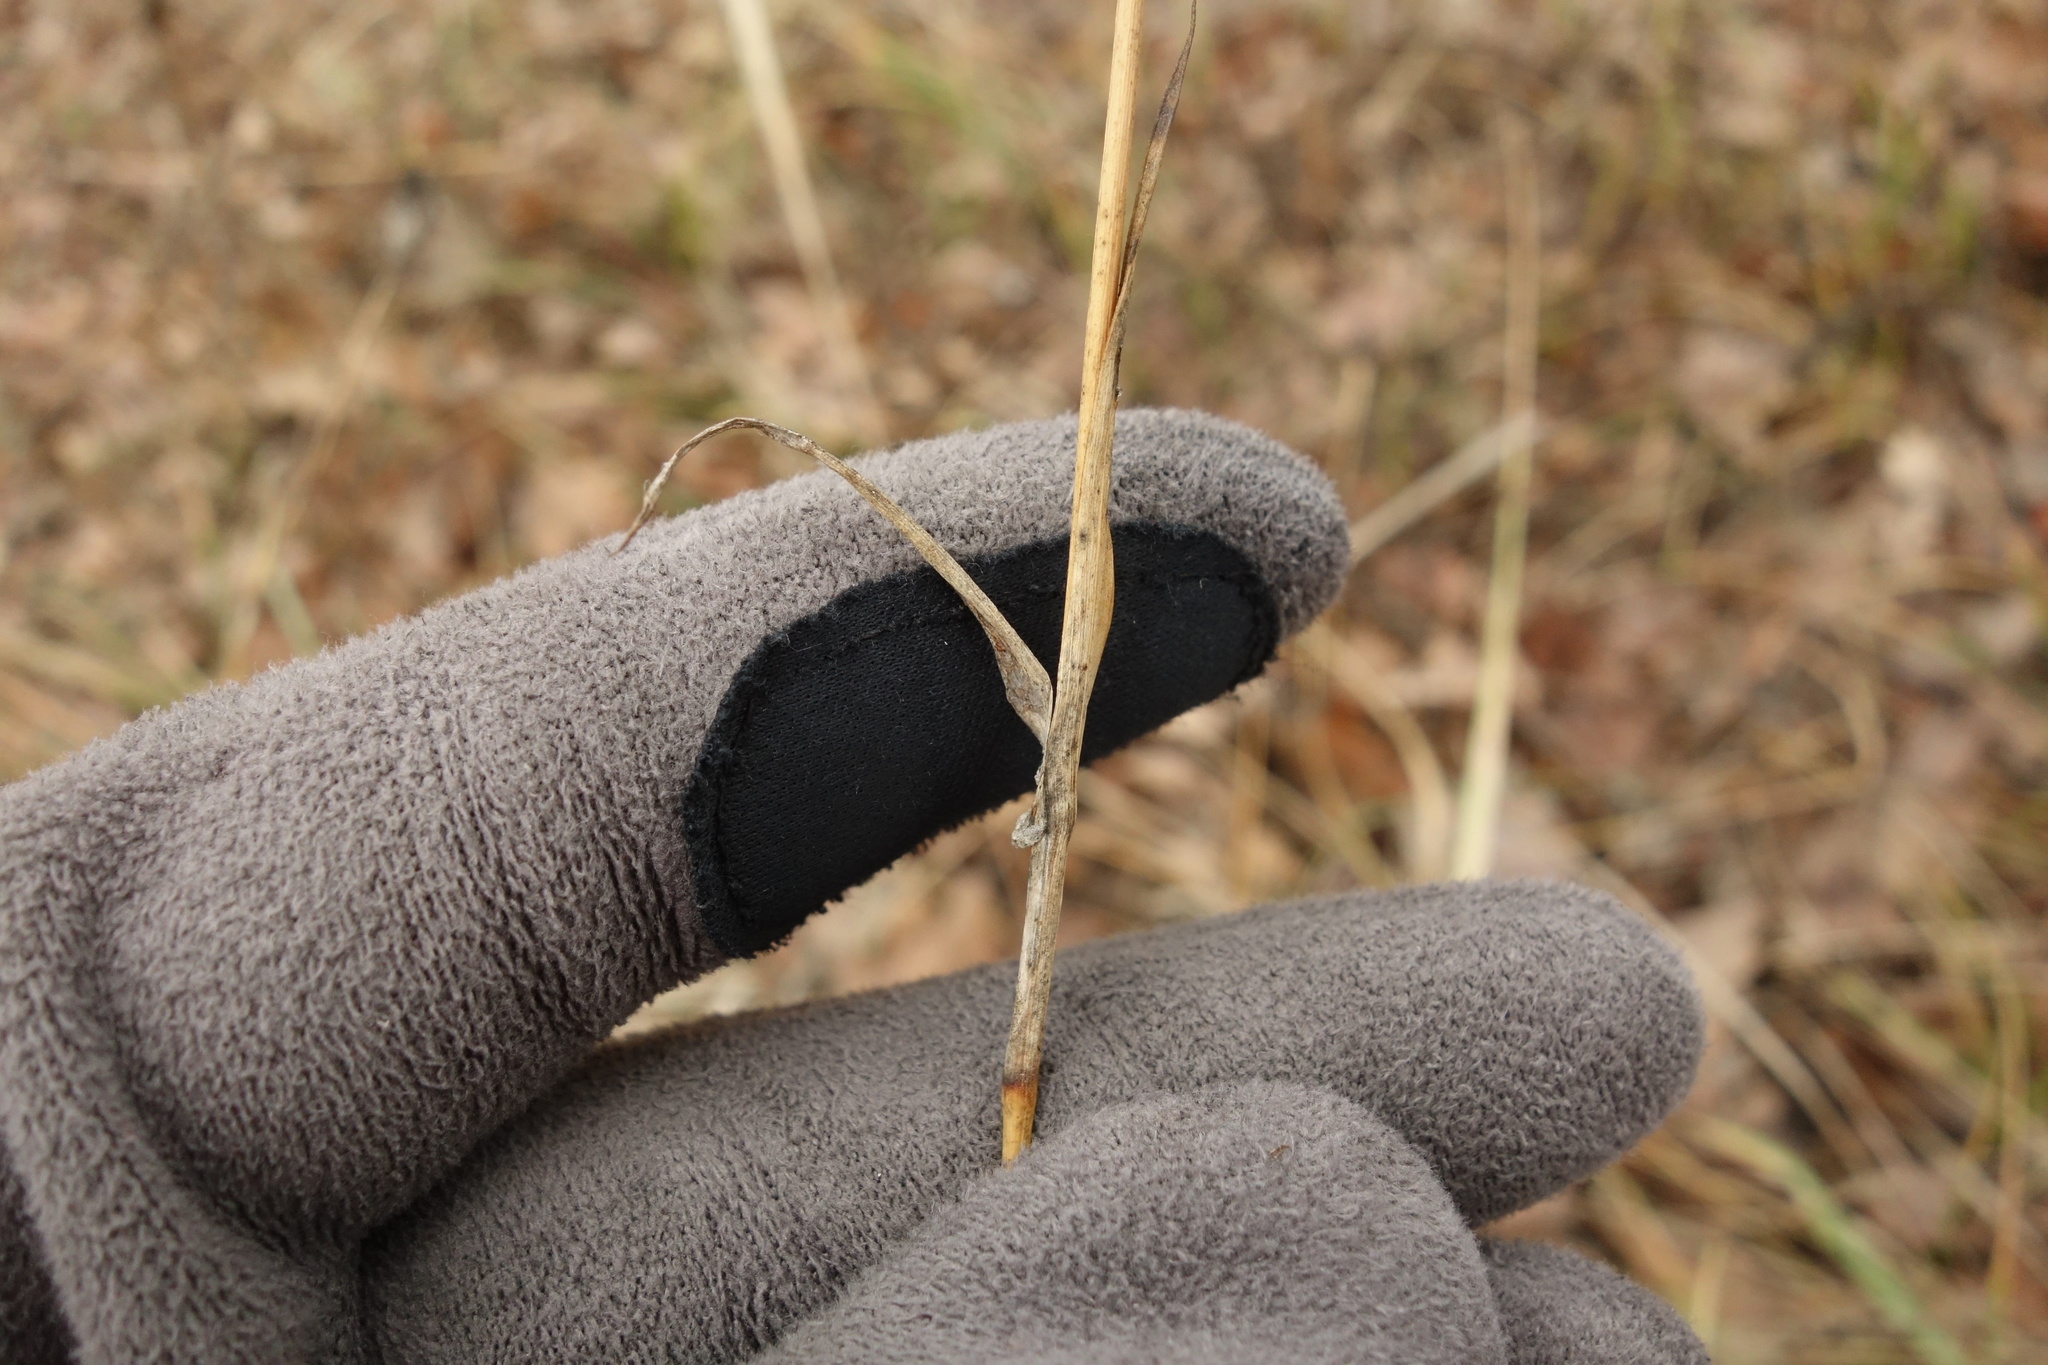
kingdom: Plantae
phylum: Tracheophyta
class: Magnoliopsida
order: Caryophyllales
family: Caryophyllaceae
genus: Dianthus
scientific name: Dianthus capitatus
